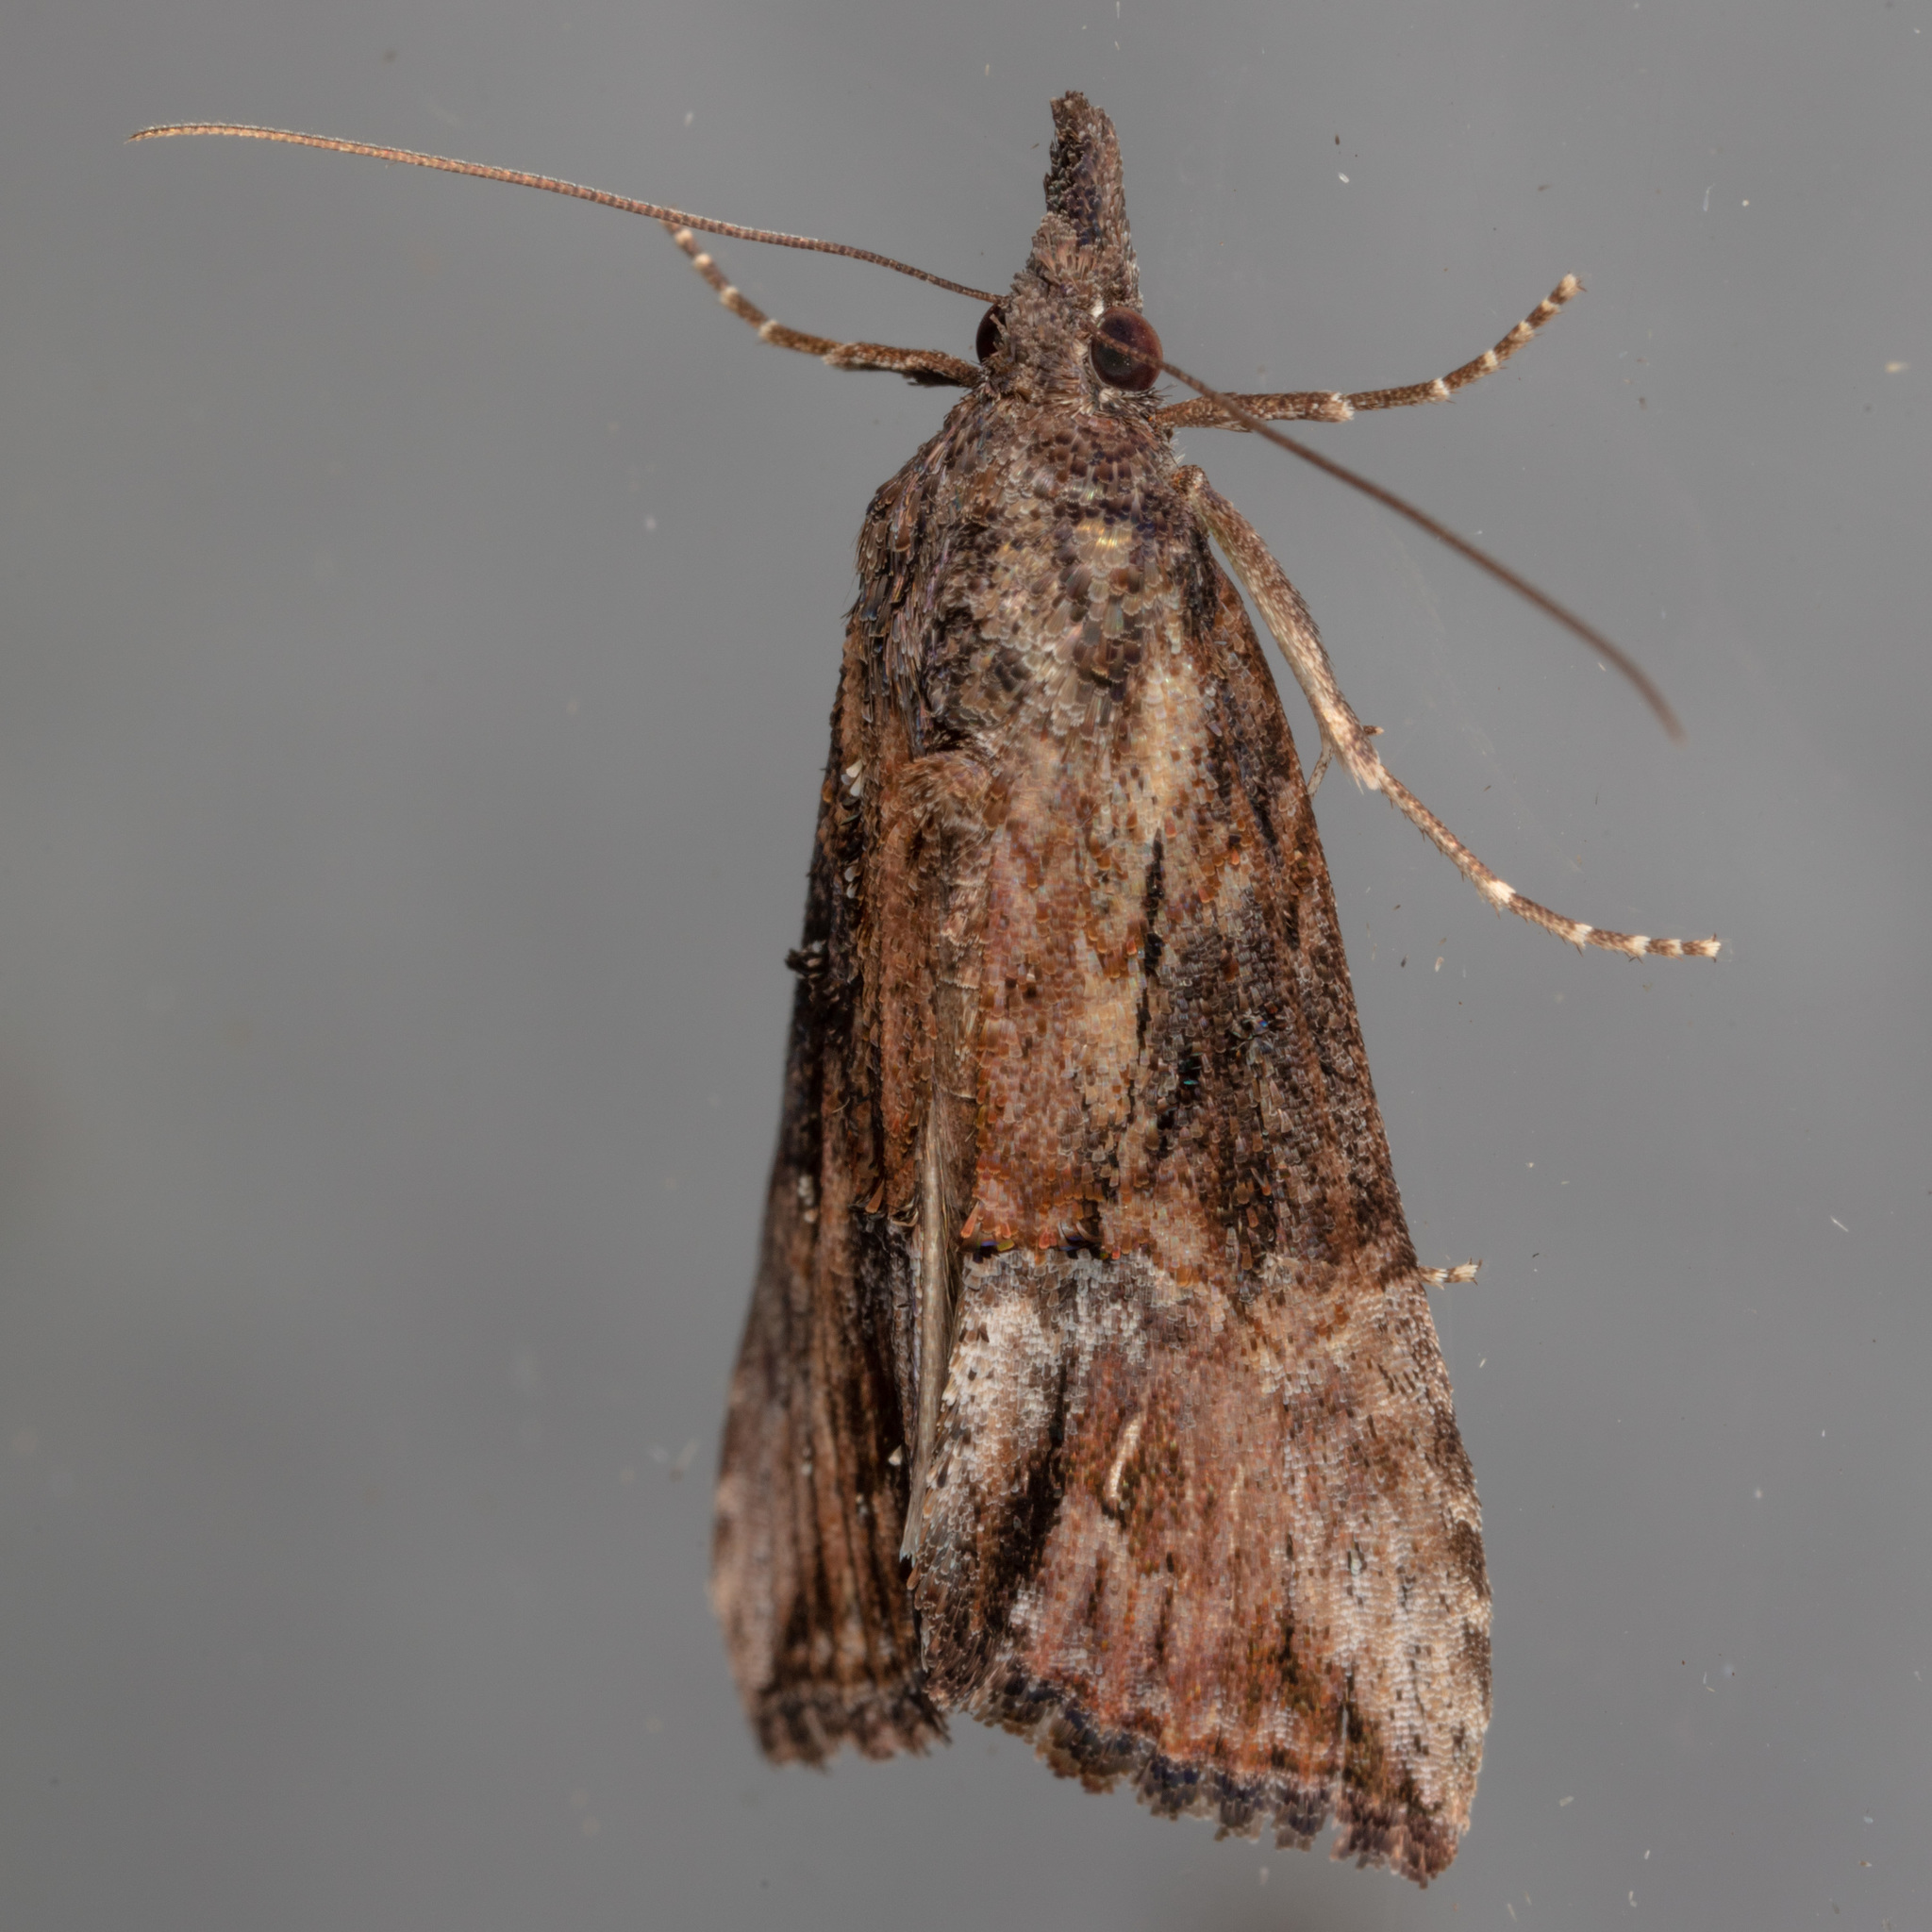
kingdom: Animalia
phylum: Arthropoda
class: Insecta
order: Lepidoptera
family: Erebidae
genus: Hypena
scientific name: Hypena scabra
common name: Green cloverworm
